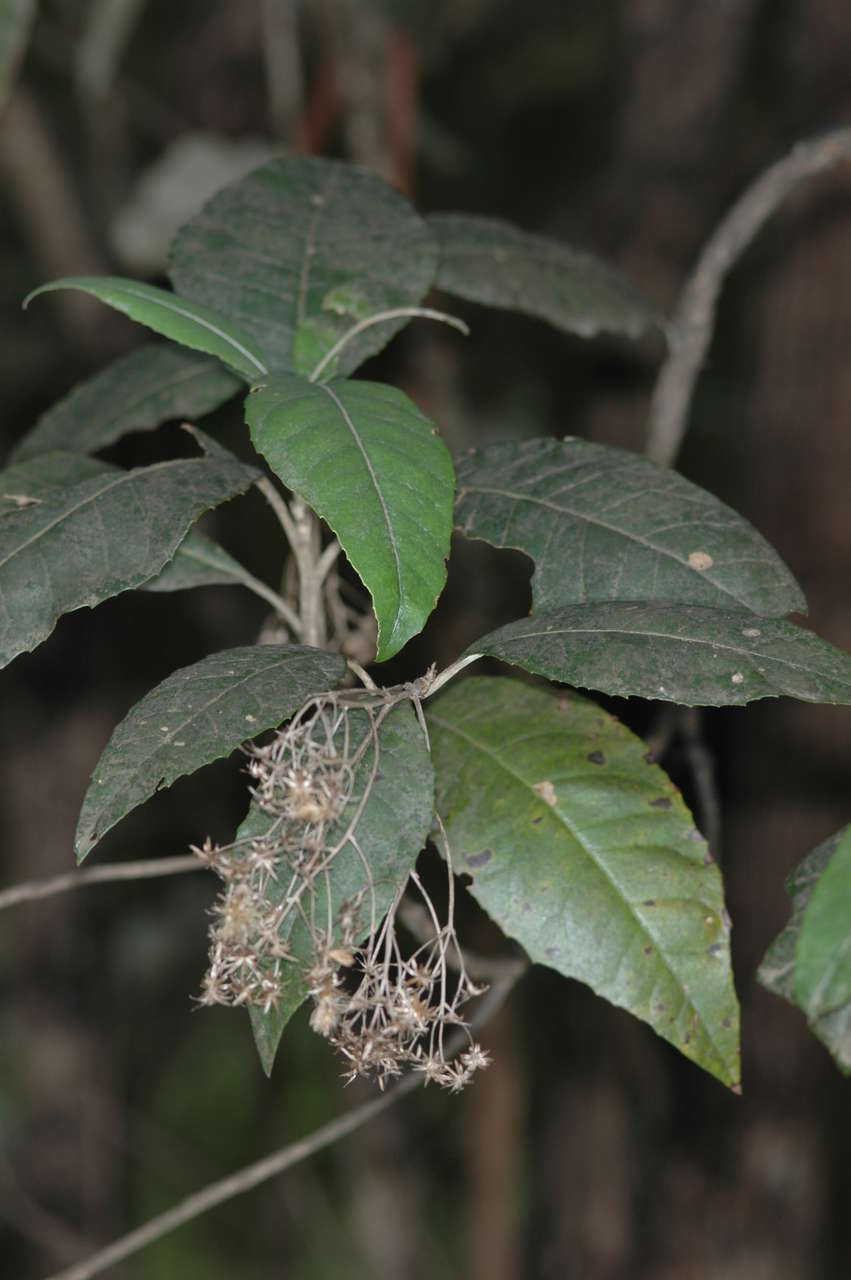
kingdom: Plantae
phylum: Tracheophyta
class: Magnoliopsida
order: Asterales
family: Asteraceae
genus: Olearia
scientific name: Olearia argophylla
